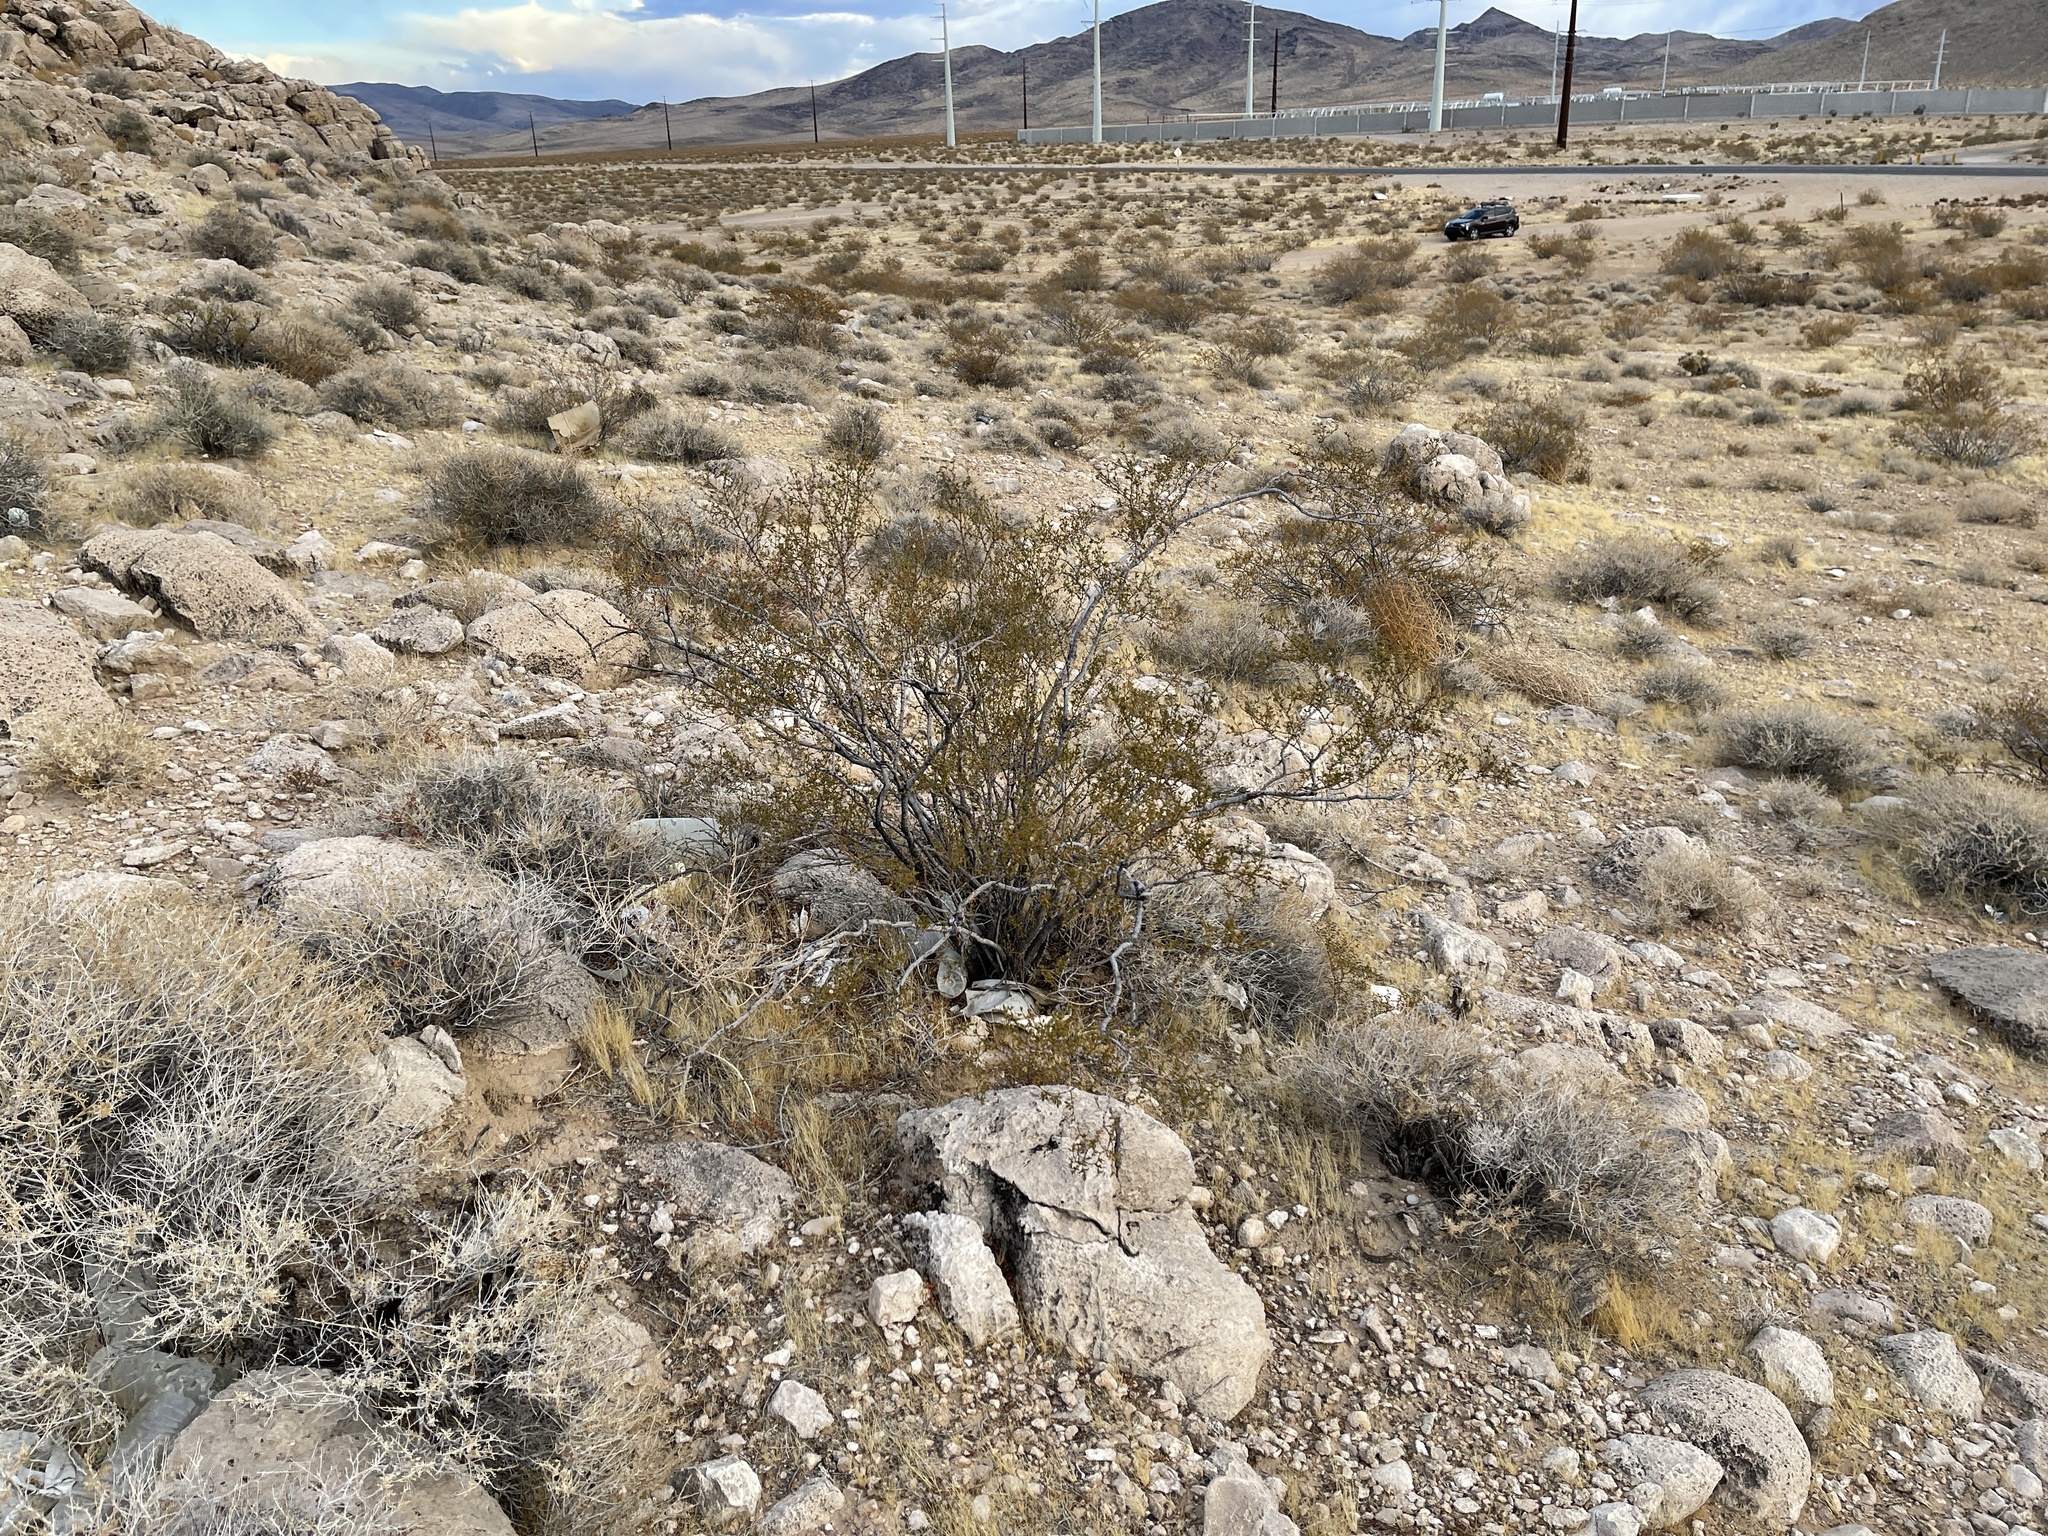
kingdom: Plantae
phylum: Tracheophyta
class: Magnoliopsida
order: Zygophyllales
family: Zygophyllaceae
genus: Larrea
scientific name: Larrea tridentata
